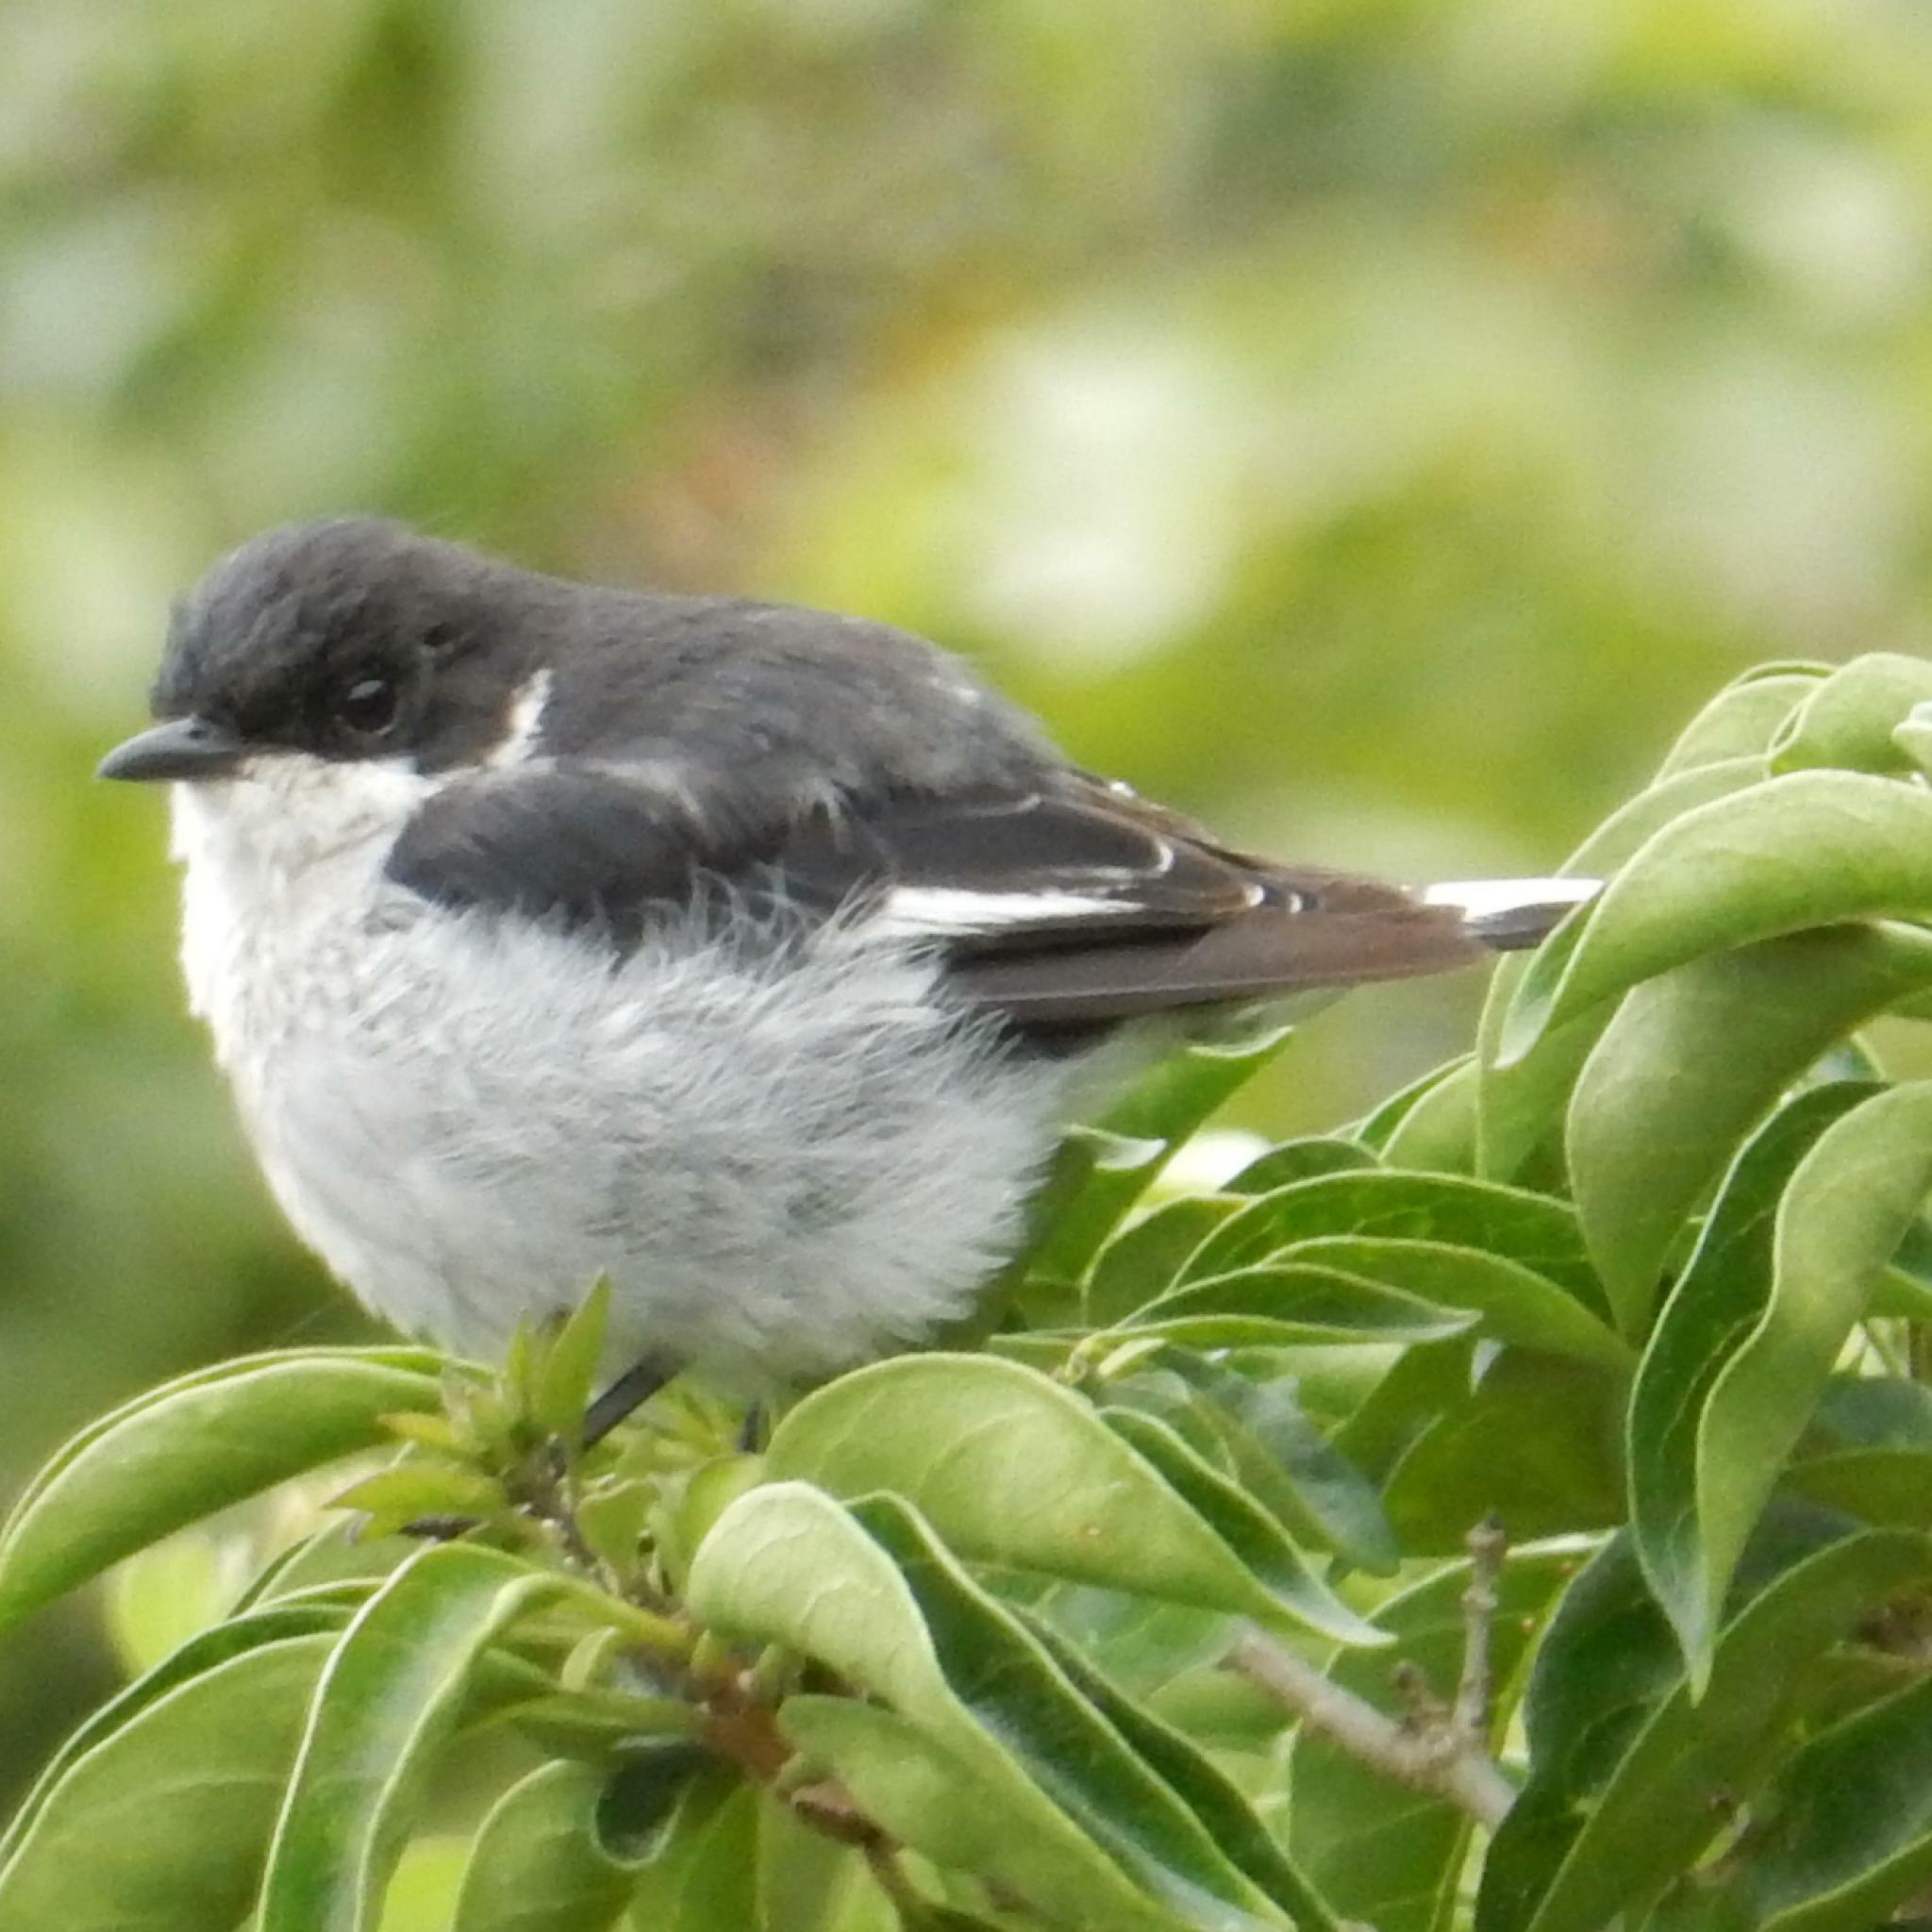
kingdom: Animalia
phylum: Chordata
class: Aves
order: Passeriformes
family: Muscicapidae
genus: Sigelus
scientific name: Sigelus silens
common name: Fiscal flycatcher
